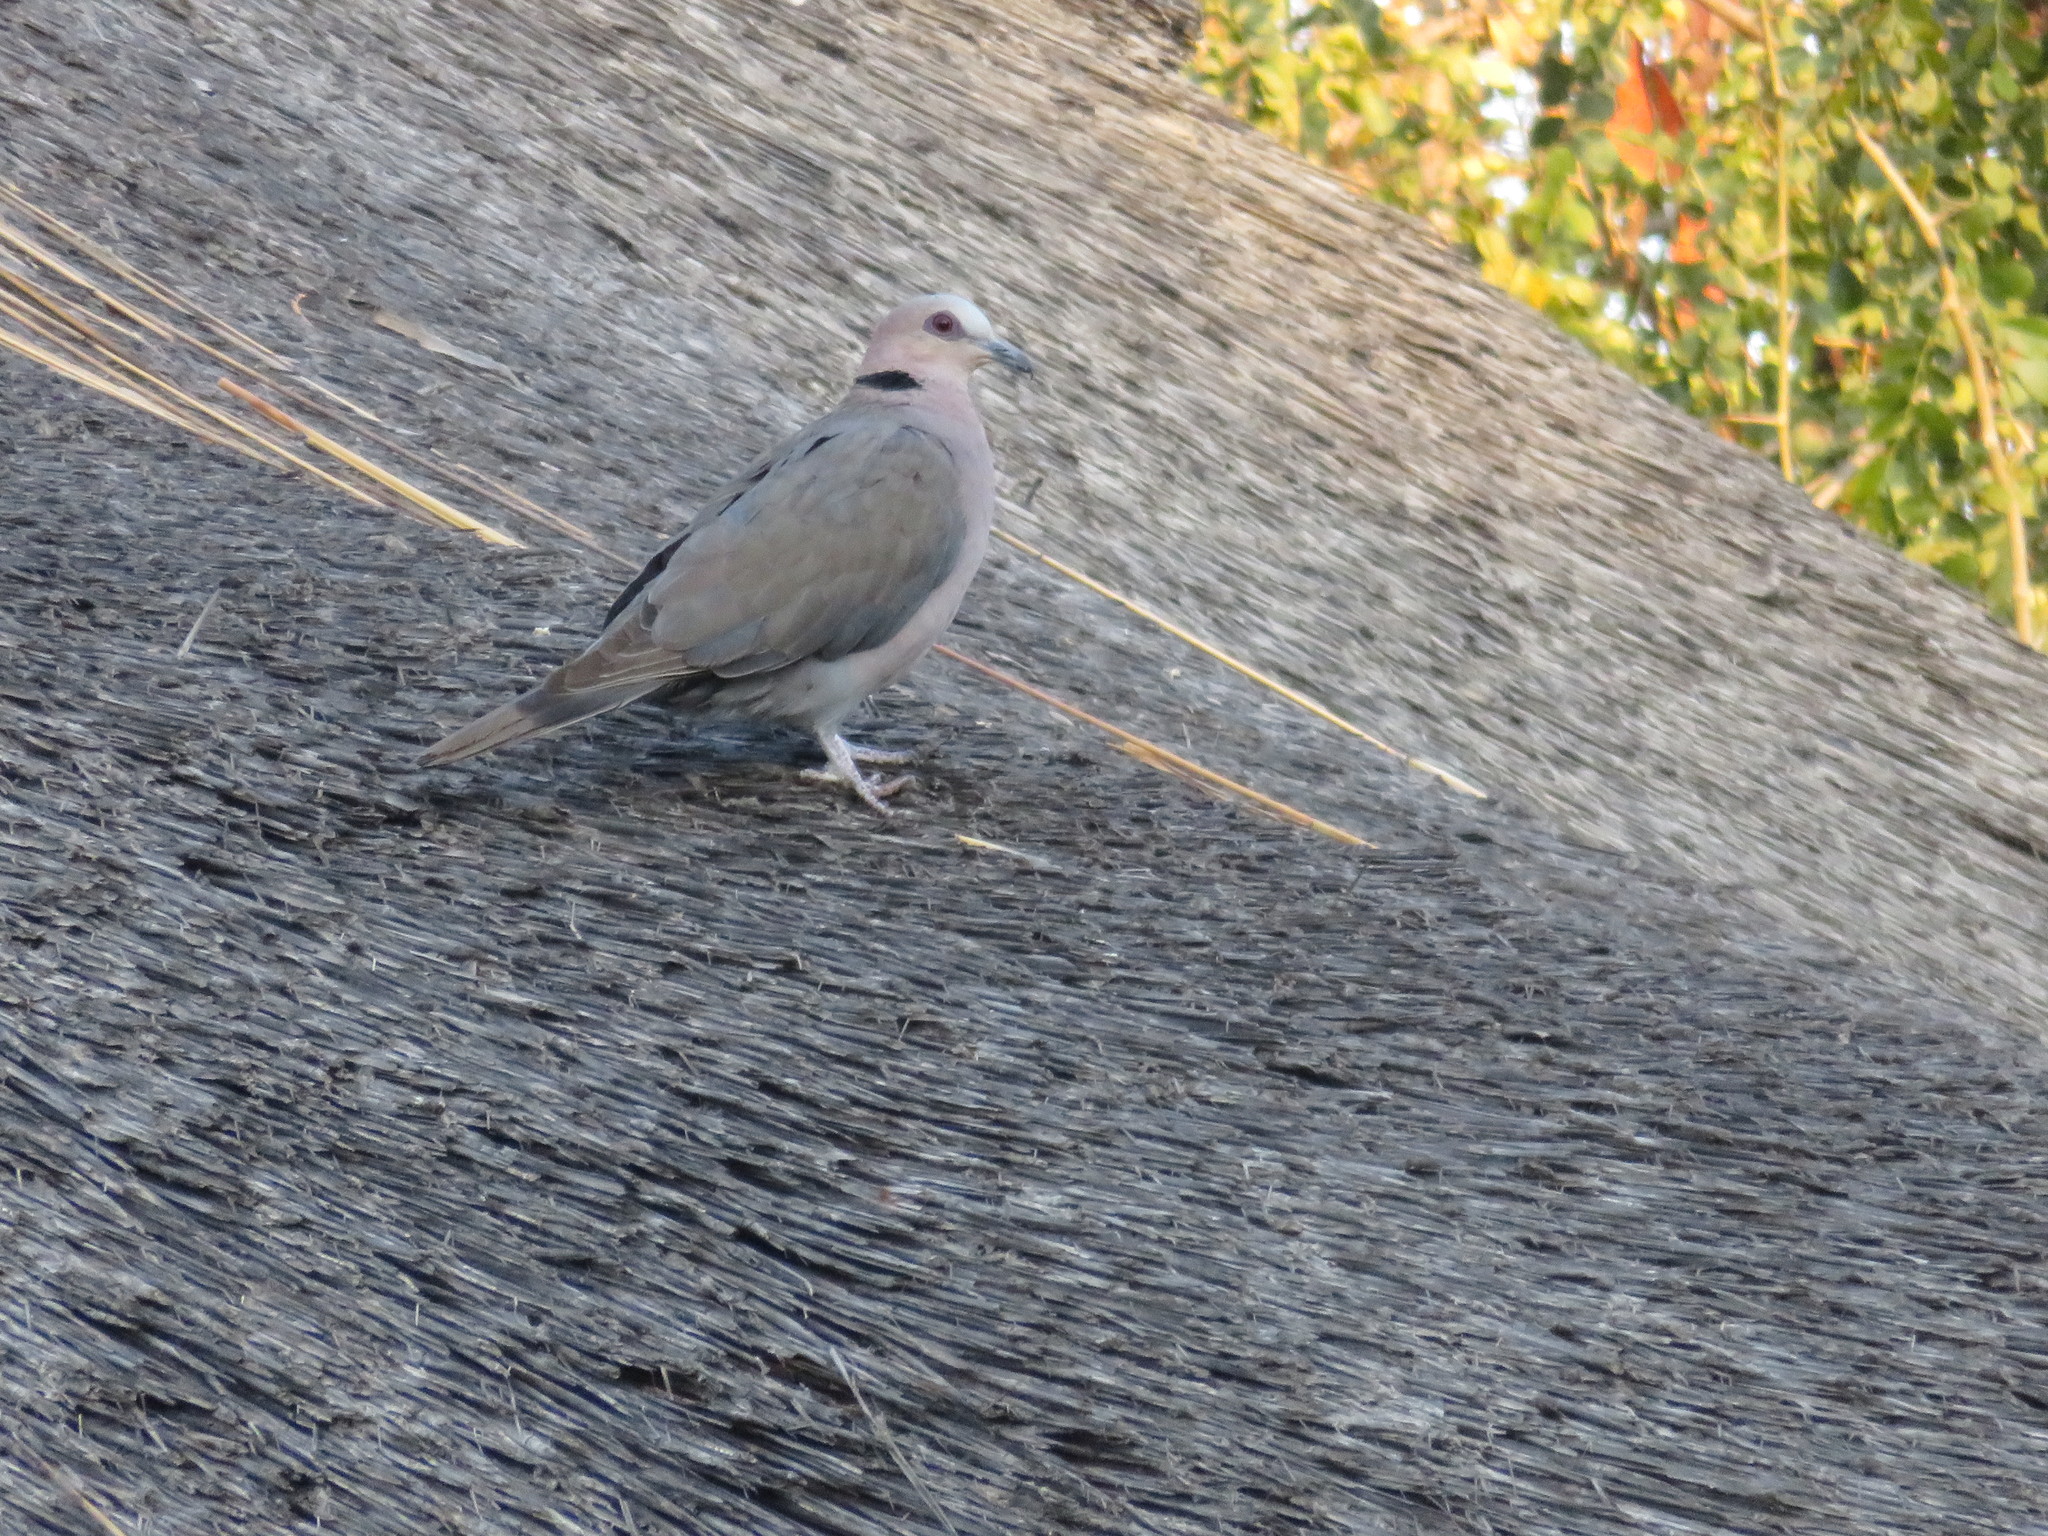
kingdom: Animalia
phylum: Chordata
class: Aves
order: Columbiformes
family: Columbidae
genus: Streptopelia
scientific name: Streptopelia semitorquata
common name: Red-eyed dove
